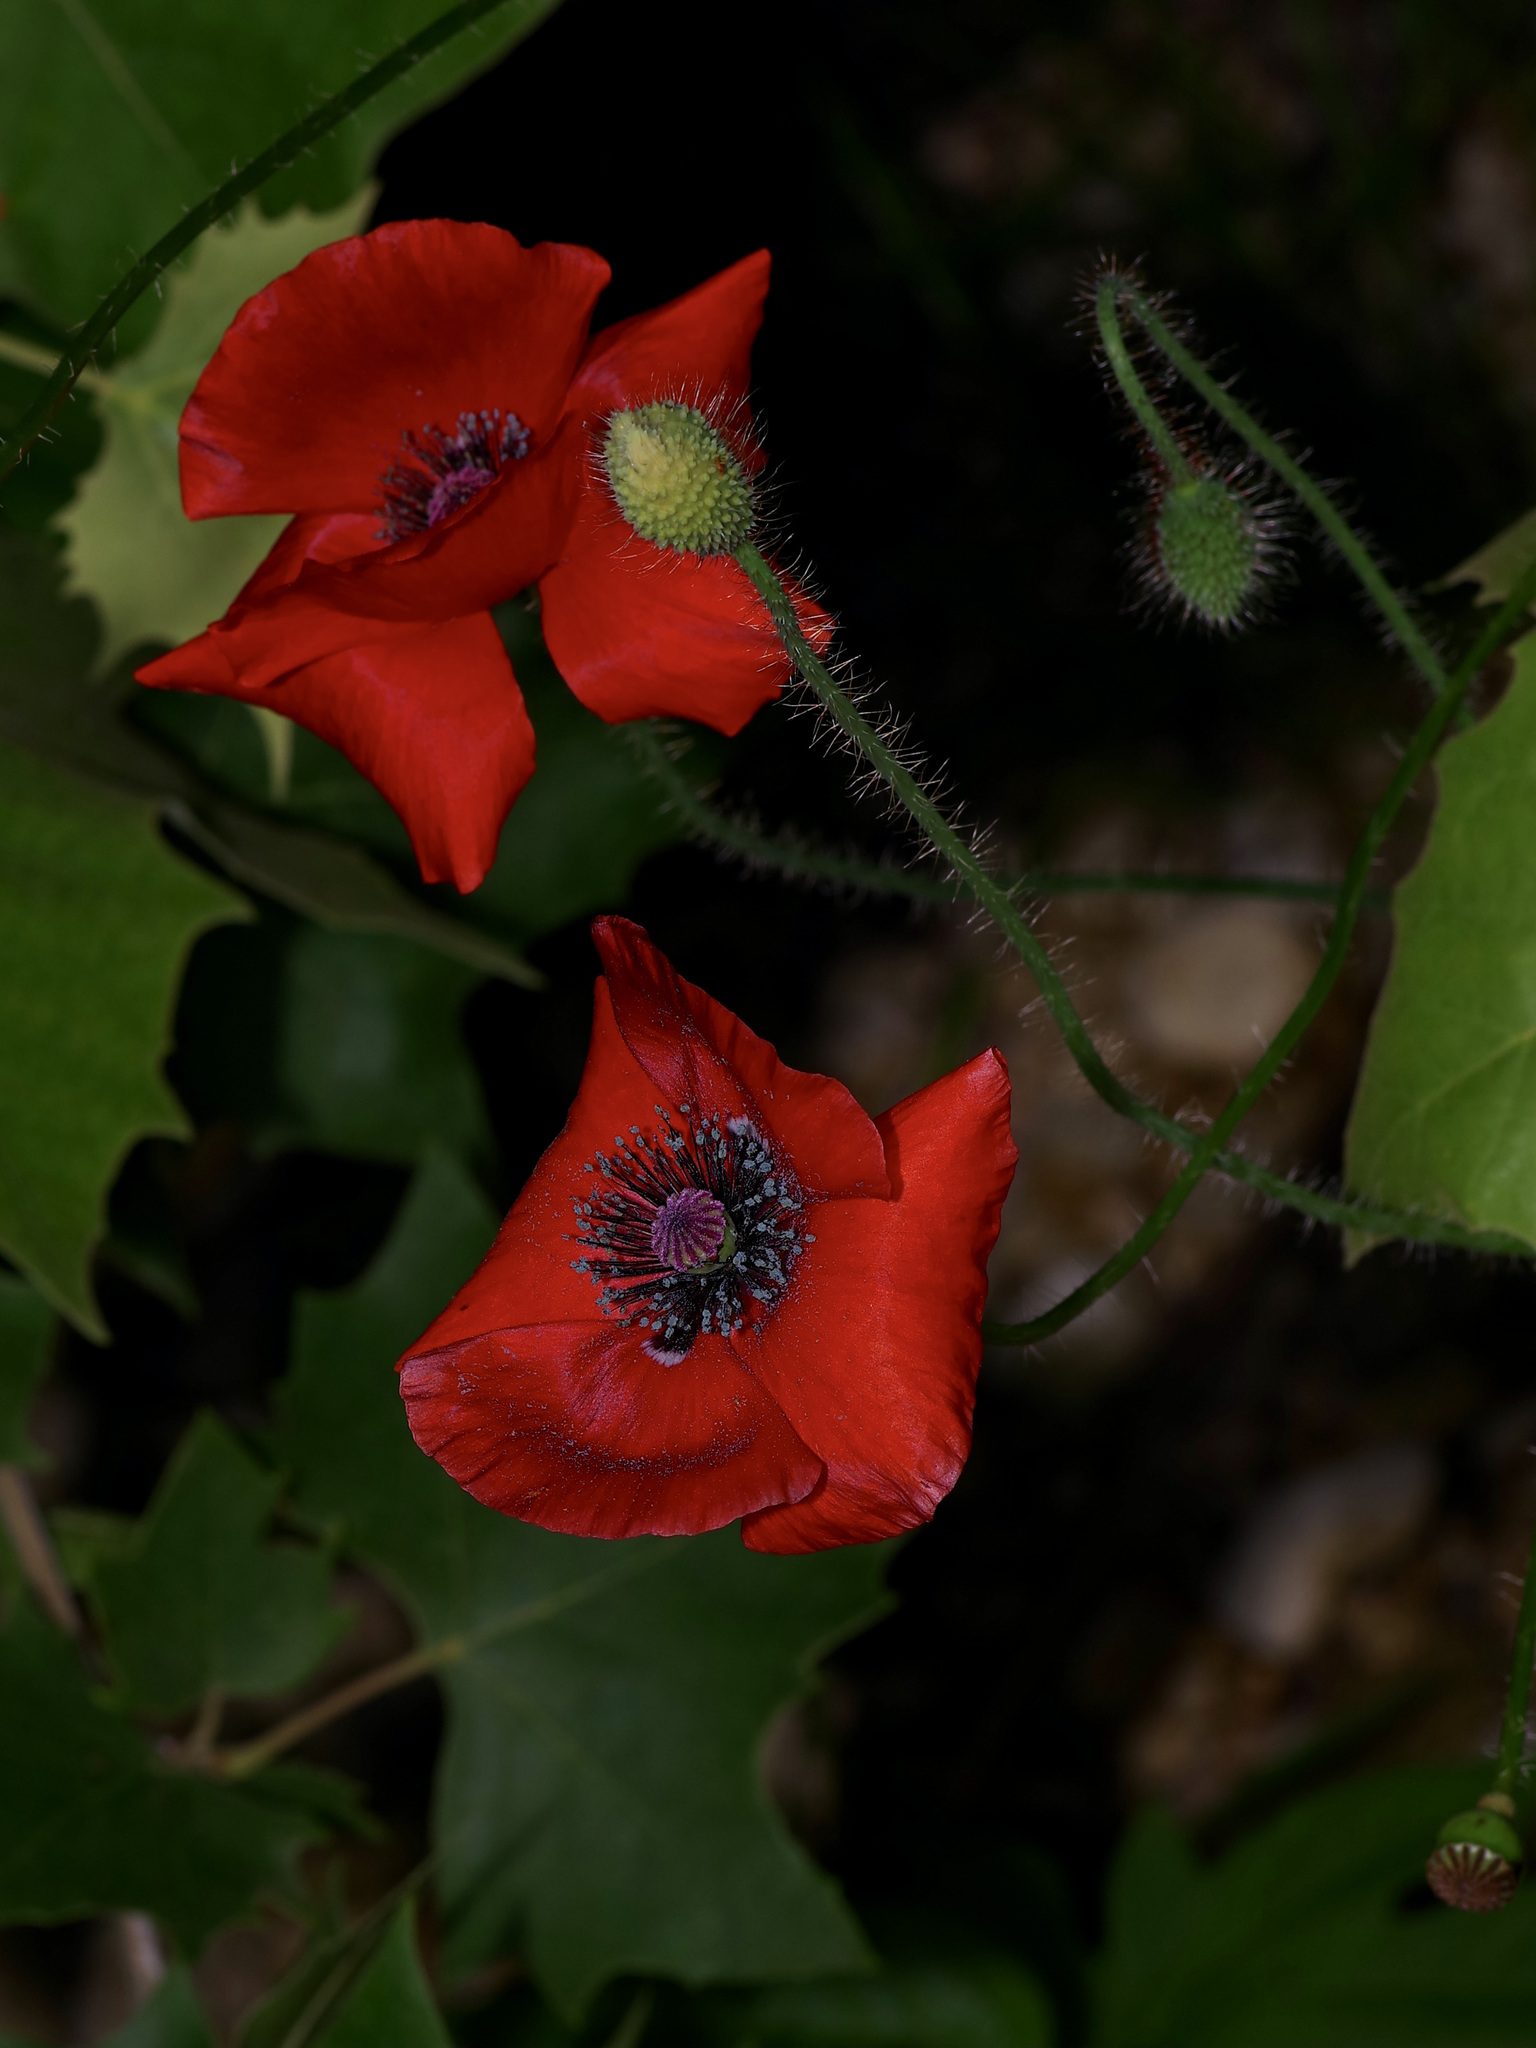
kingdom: Plantae
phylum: Tracheophyta
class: Magnoliopsida
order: Ranunculales
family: Papaveraceae
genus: Papaver
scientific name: Papaver rhoeas
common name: Corn poppy
